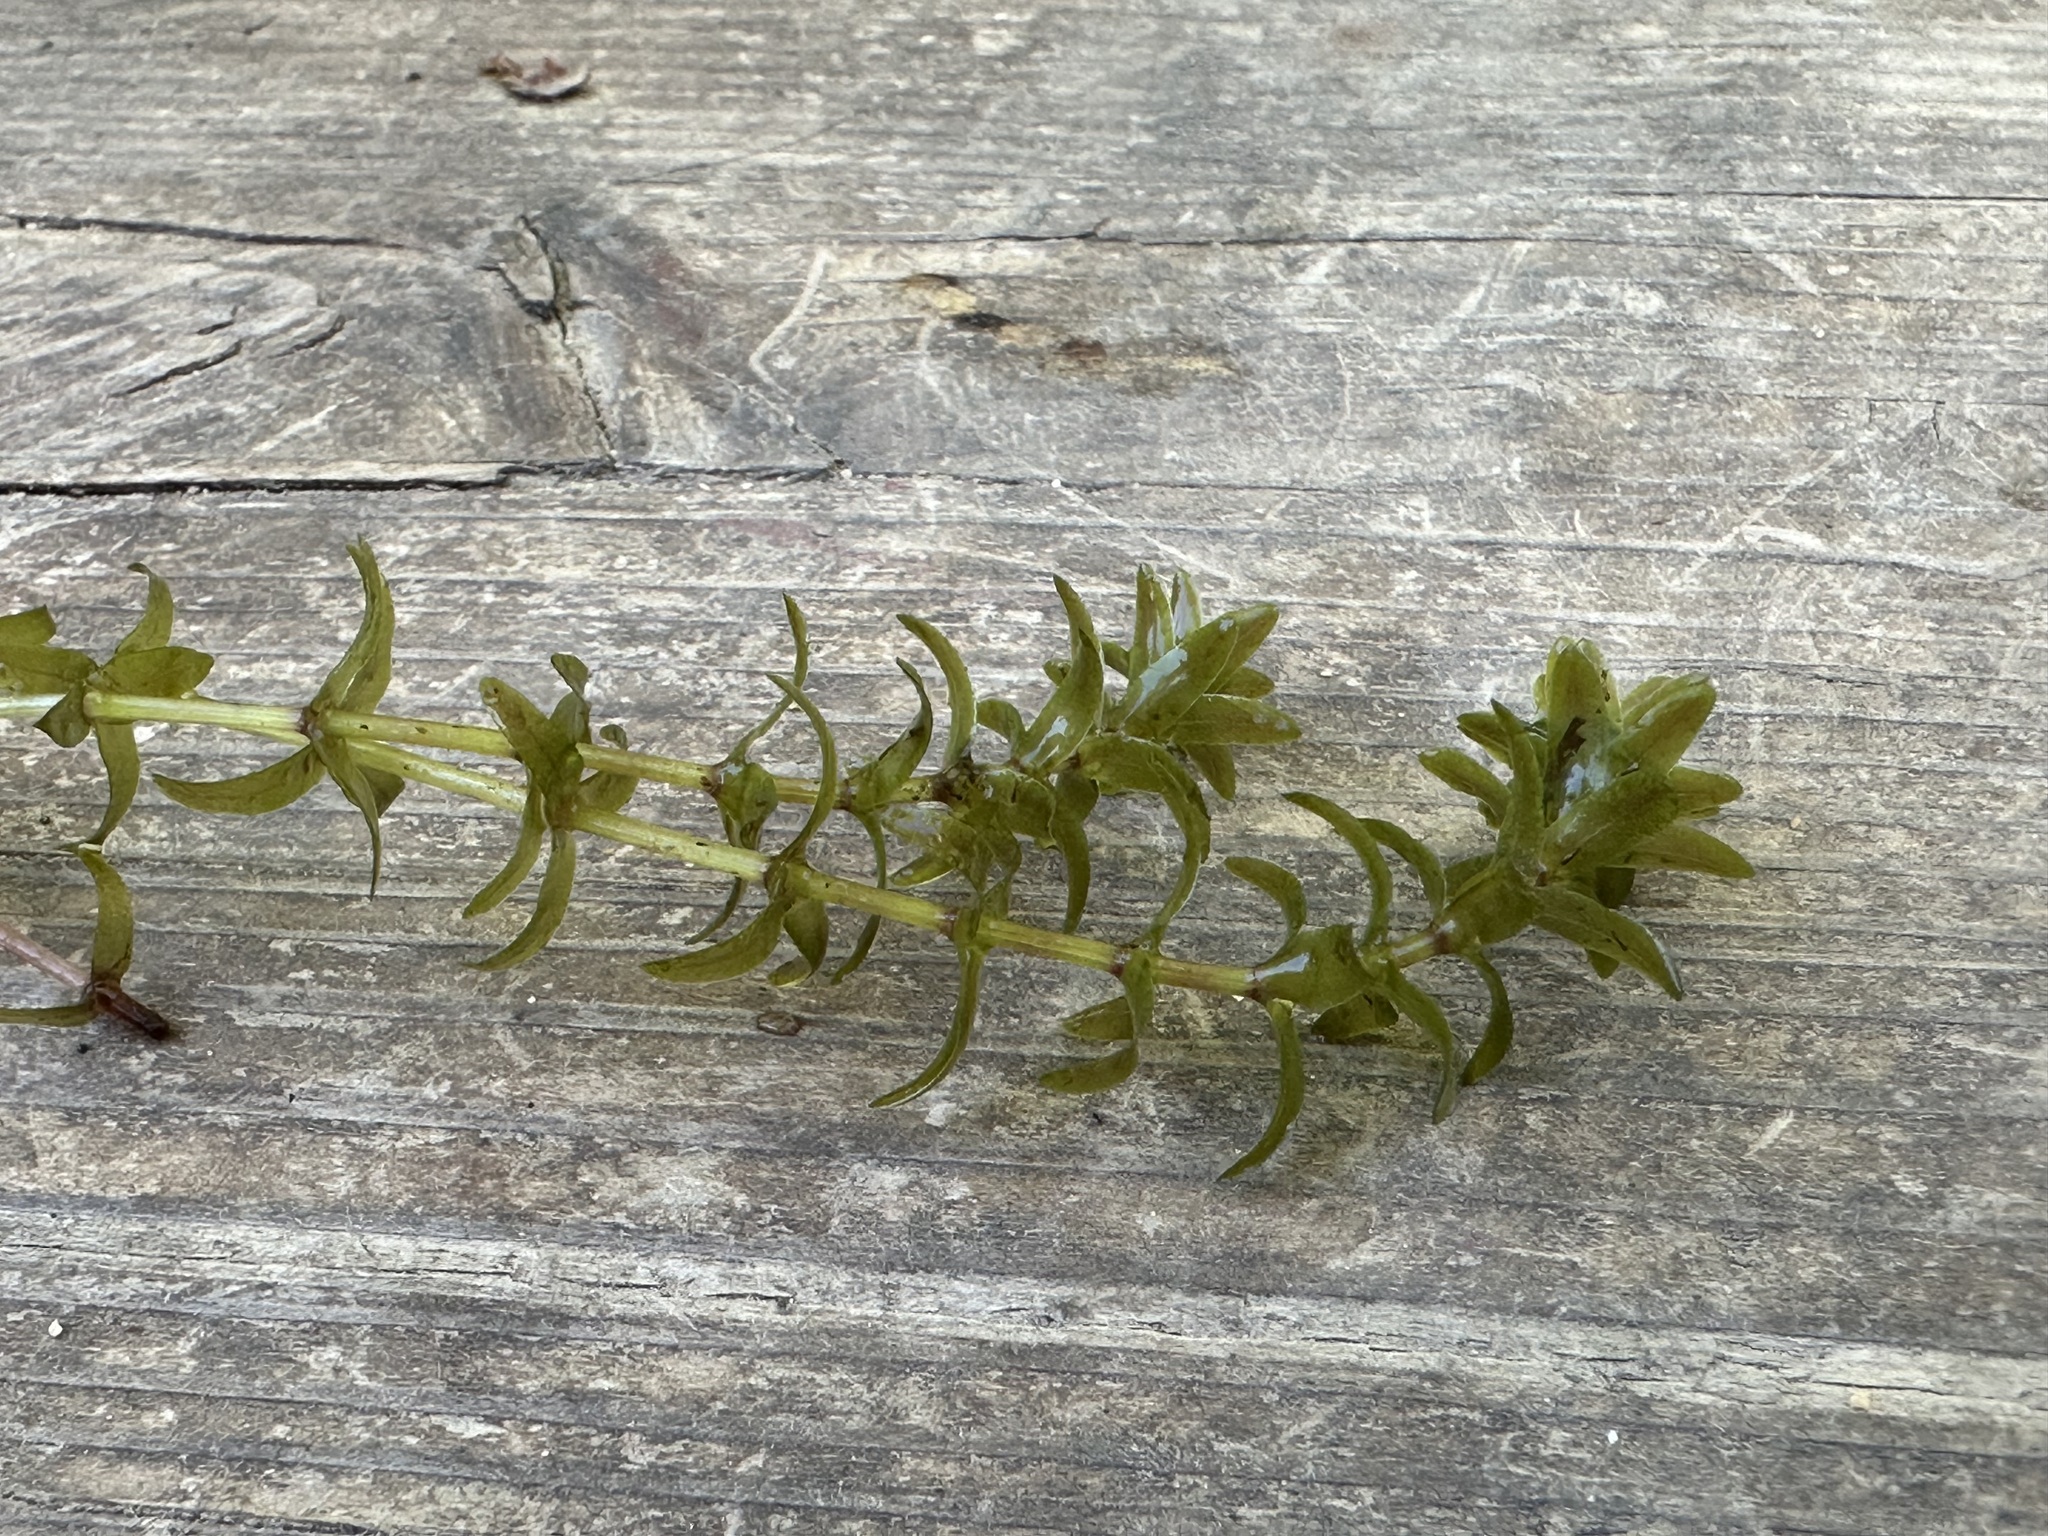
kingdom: Plantae
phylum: Tracheophyta
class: Liliopsida
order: Alismatales
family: Hydrocharitaceae
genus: Elodea
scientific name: Elodea canadensis
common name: Canadian waterweed
